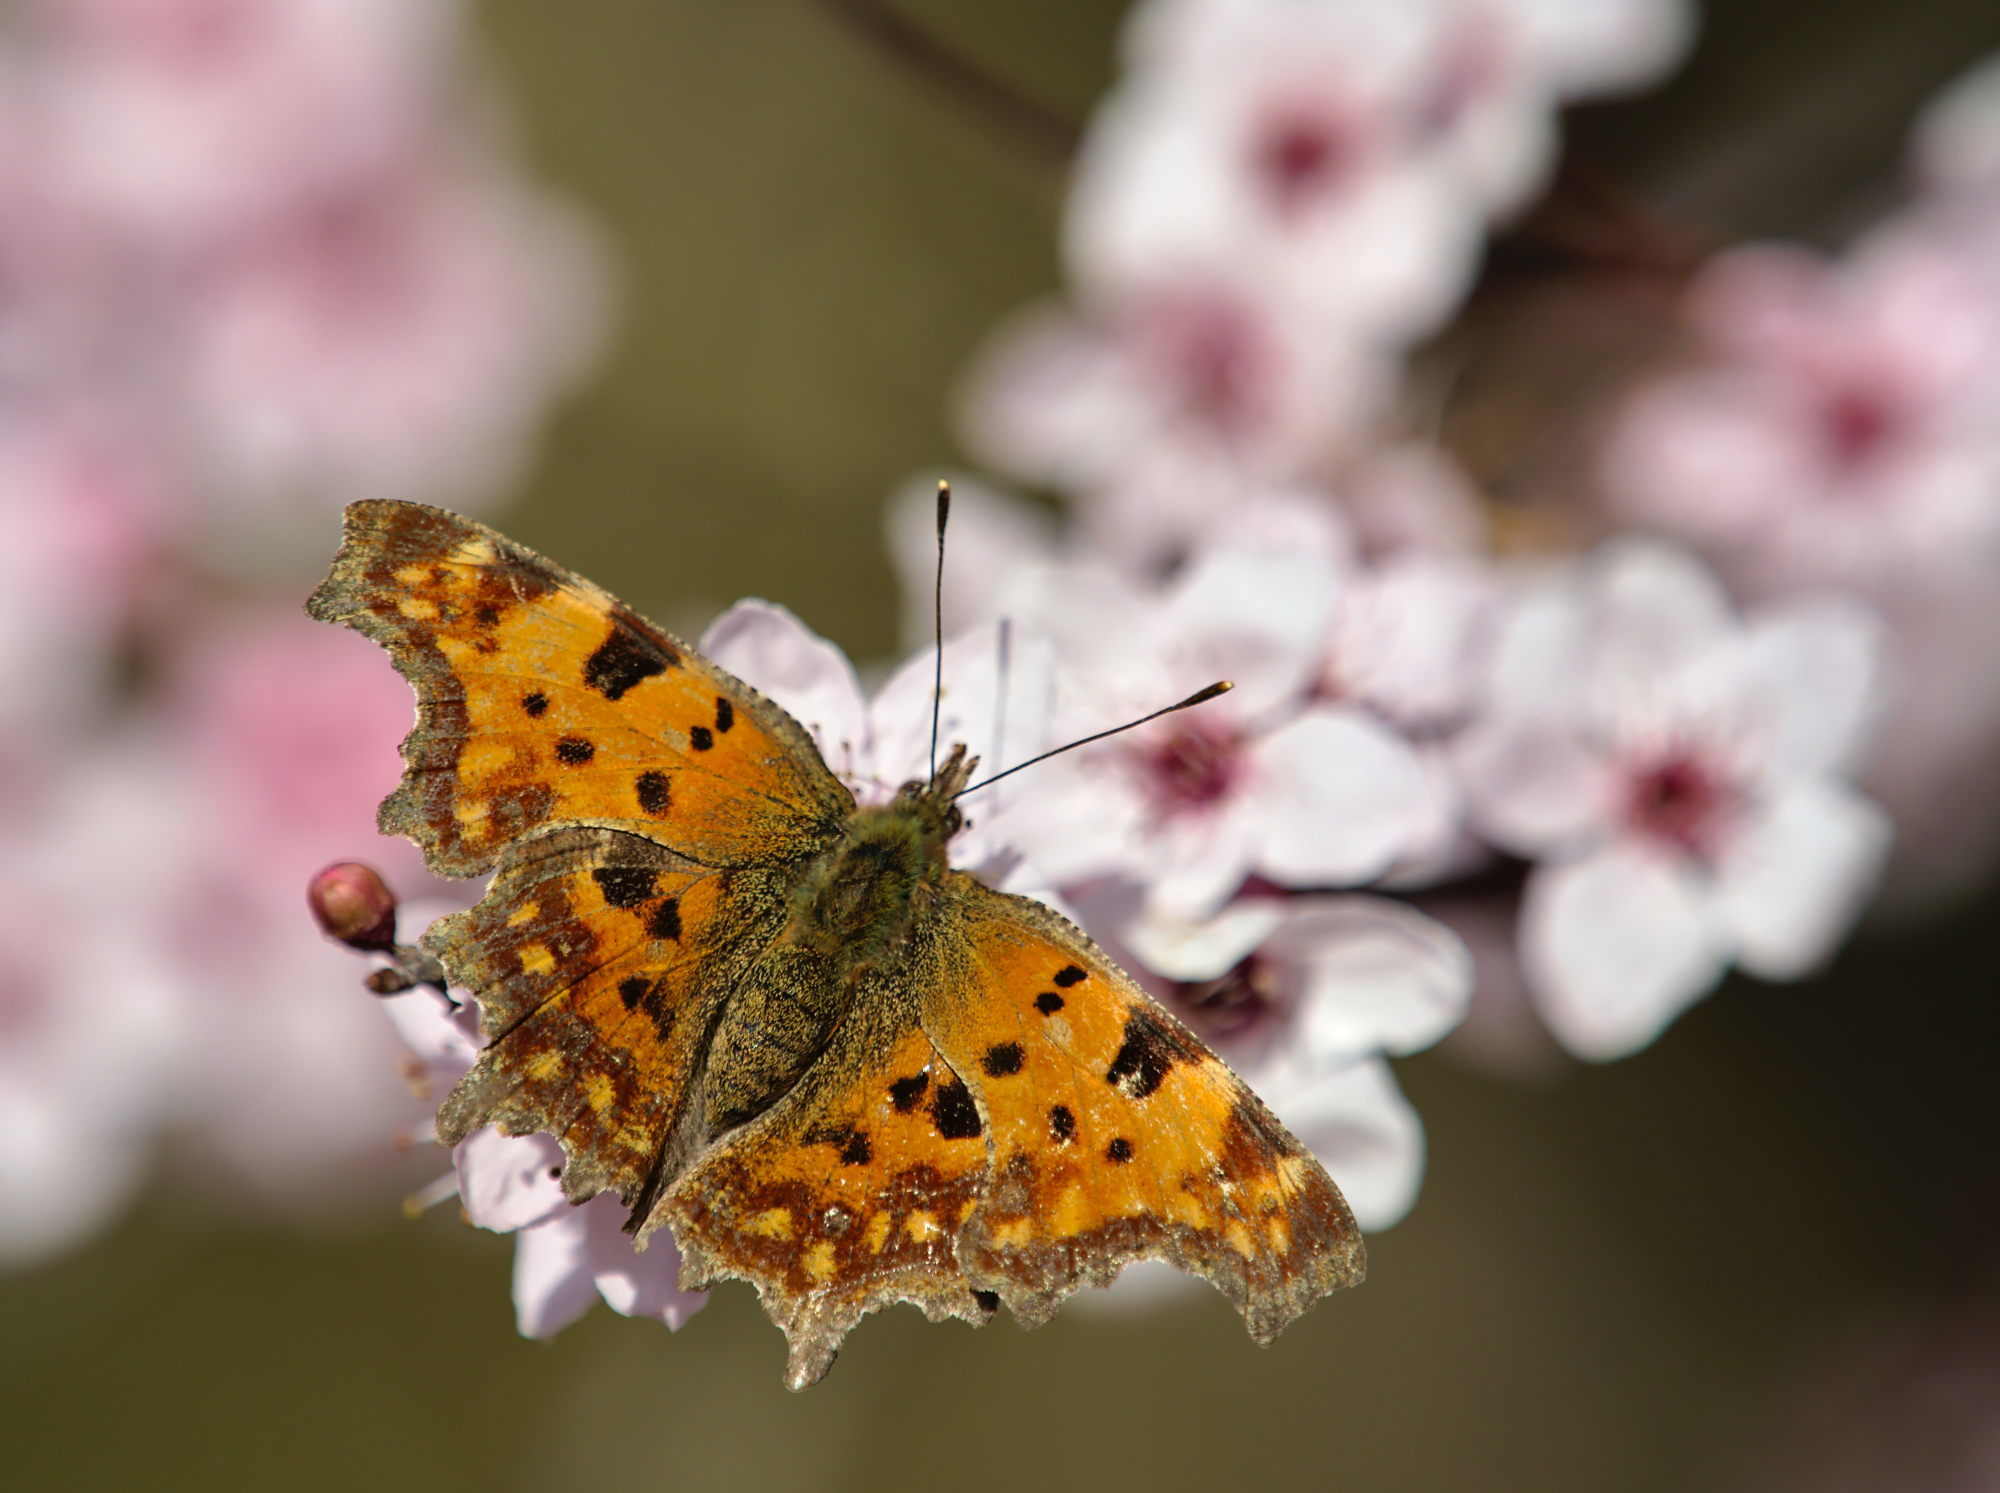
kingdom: Animalia
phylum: Arthropoda
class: Insecta
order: Lepidoptera
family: Nymphalidae
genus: Polygonia
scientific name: Polygonia c-album
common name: Comma
